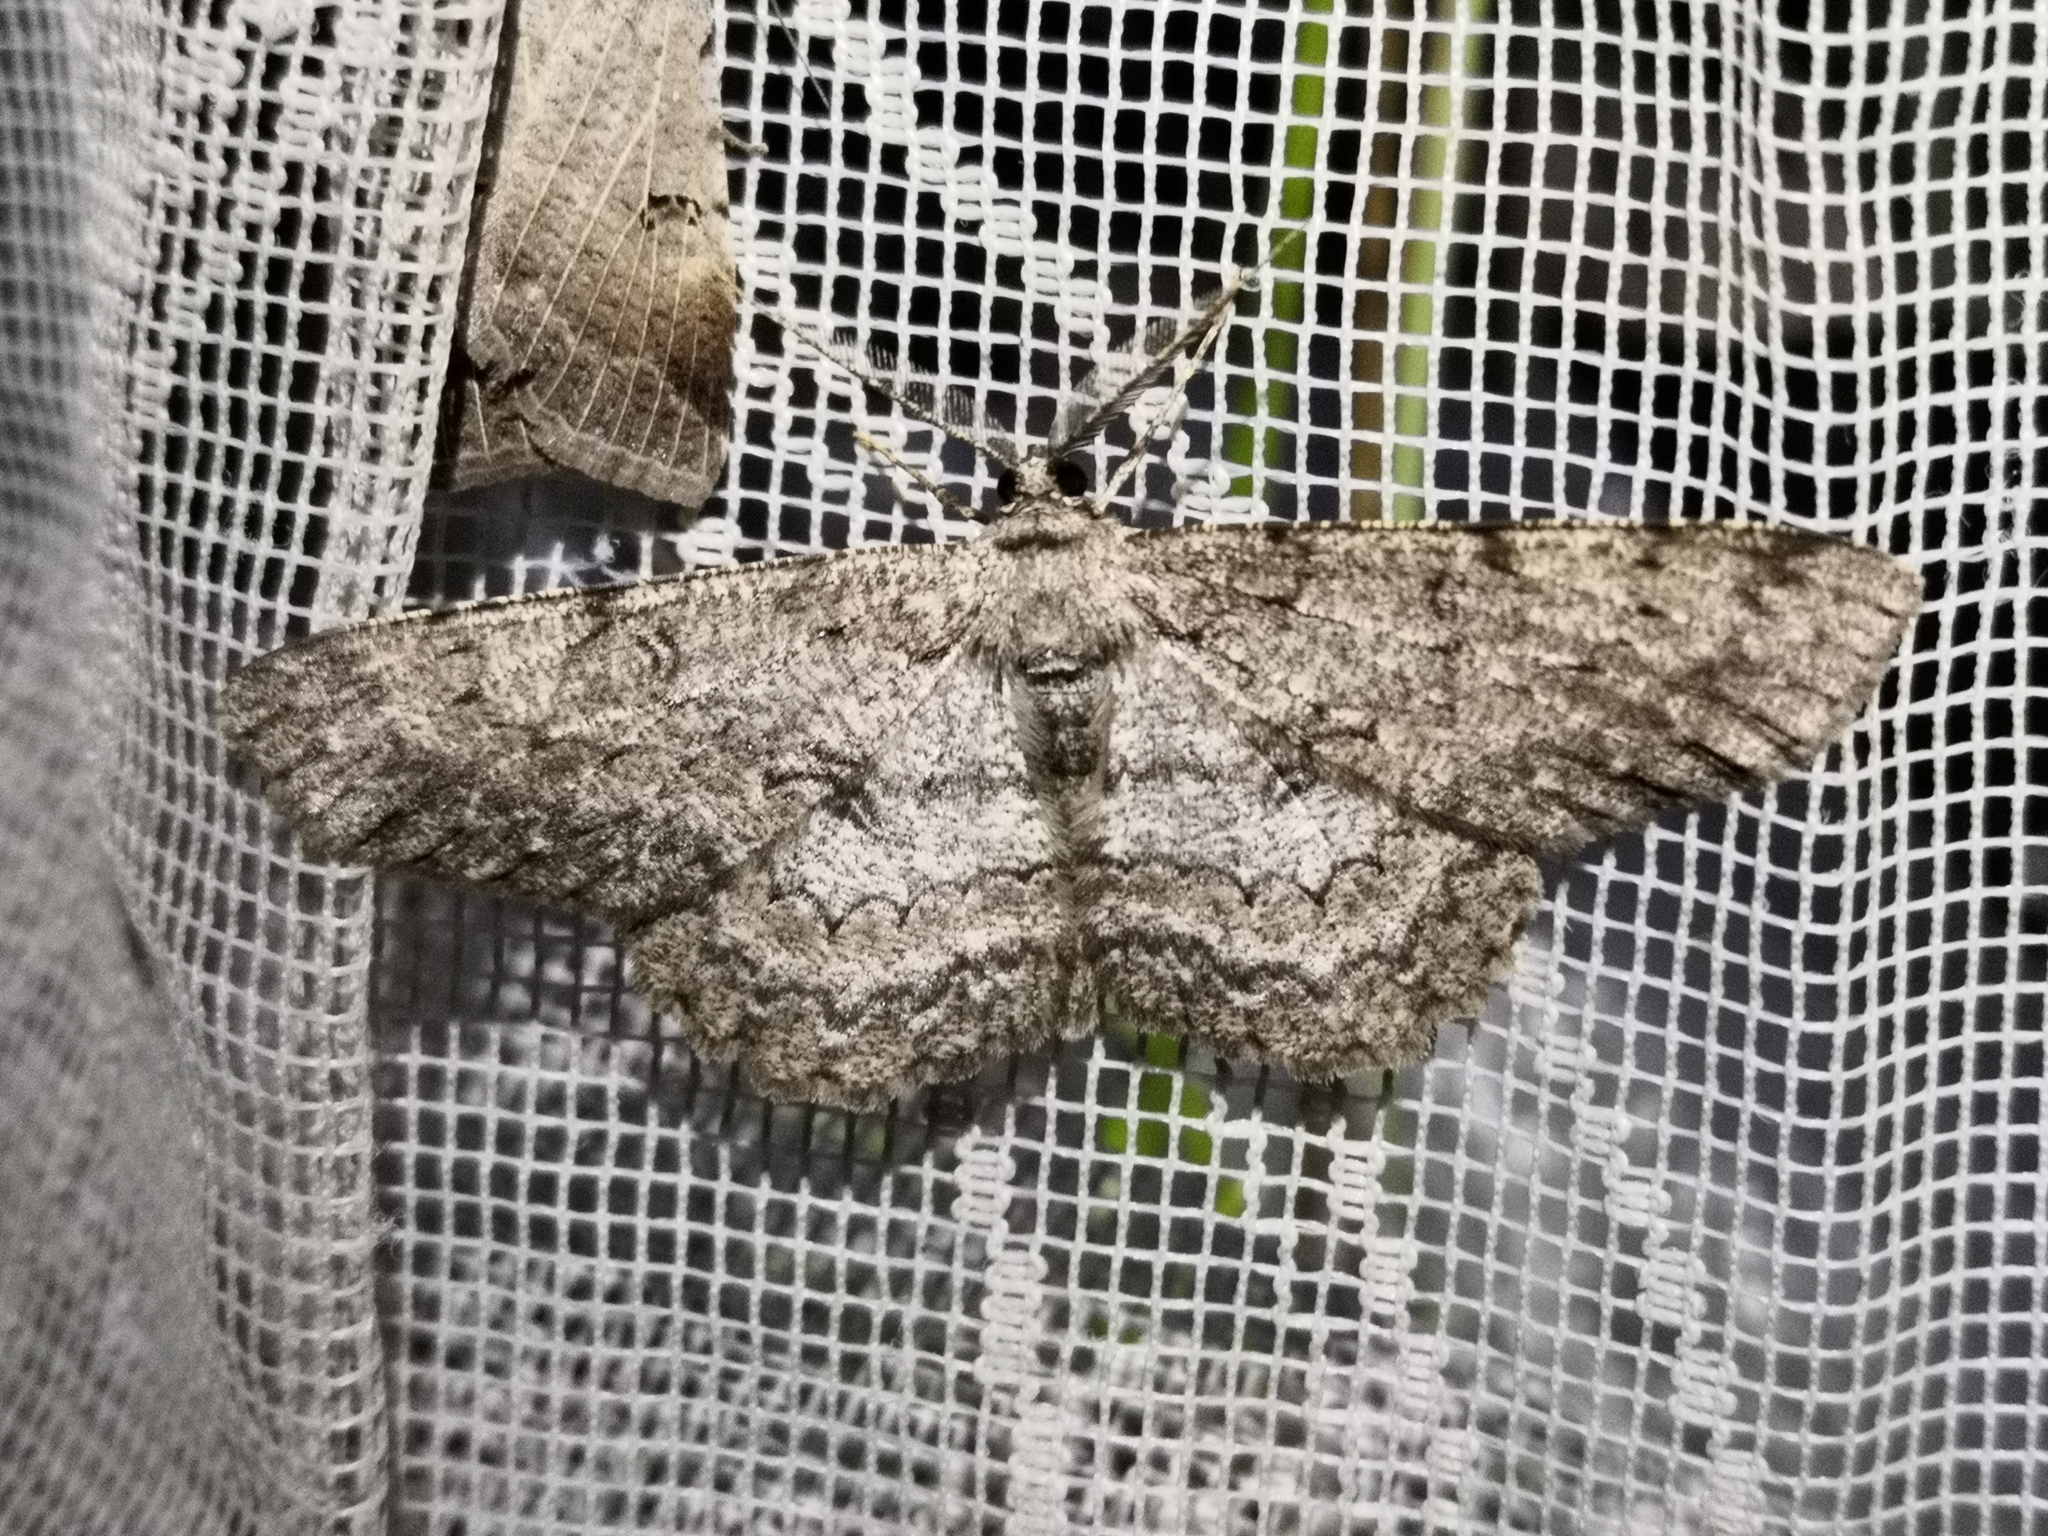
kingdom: Animalia
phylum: Arthropoda
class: Insecta
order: Lepidoptera
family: Geometridae
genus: Hypomecis
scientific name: Hypomecis punctinalis
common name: Pale oak beauty
